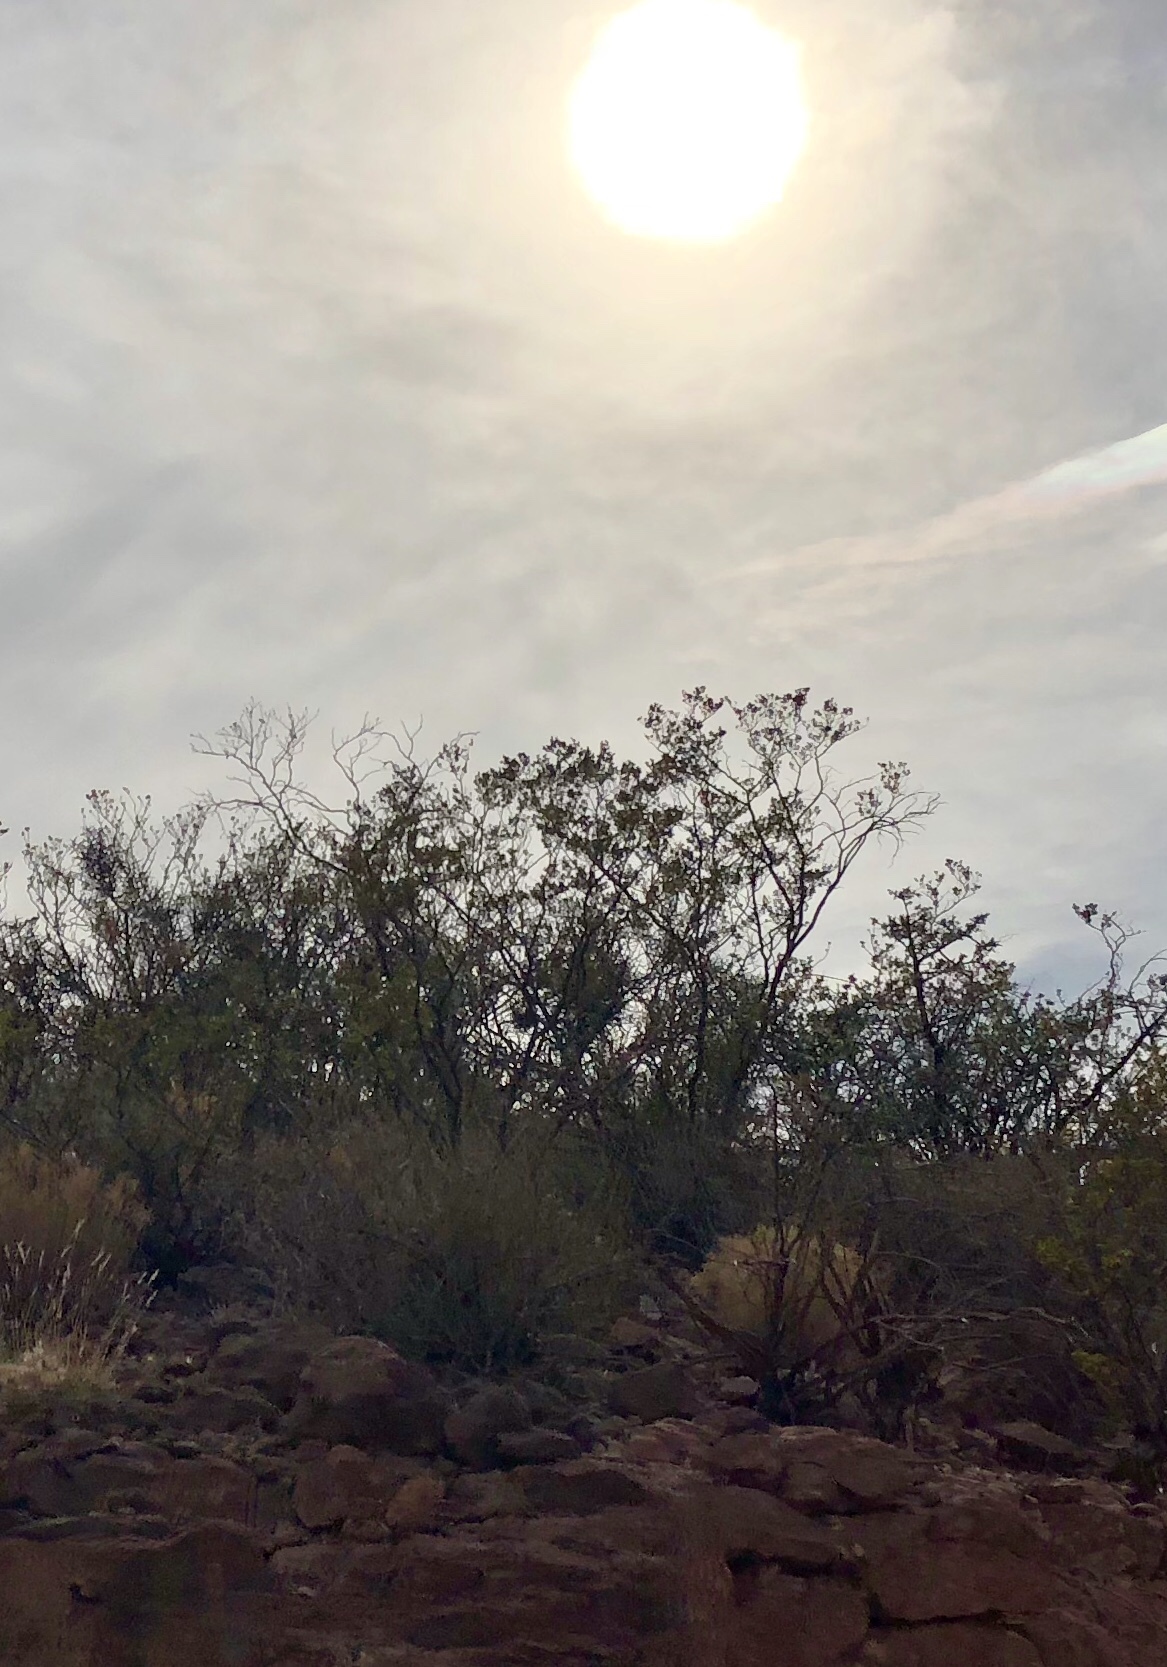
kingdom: Plantae
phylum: Tracheophyta
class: Magnoliopsida
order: Zygophyllales
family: Zygophyllaceae
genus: Larrea
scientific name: Larrea tridentata
